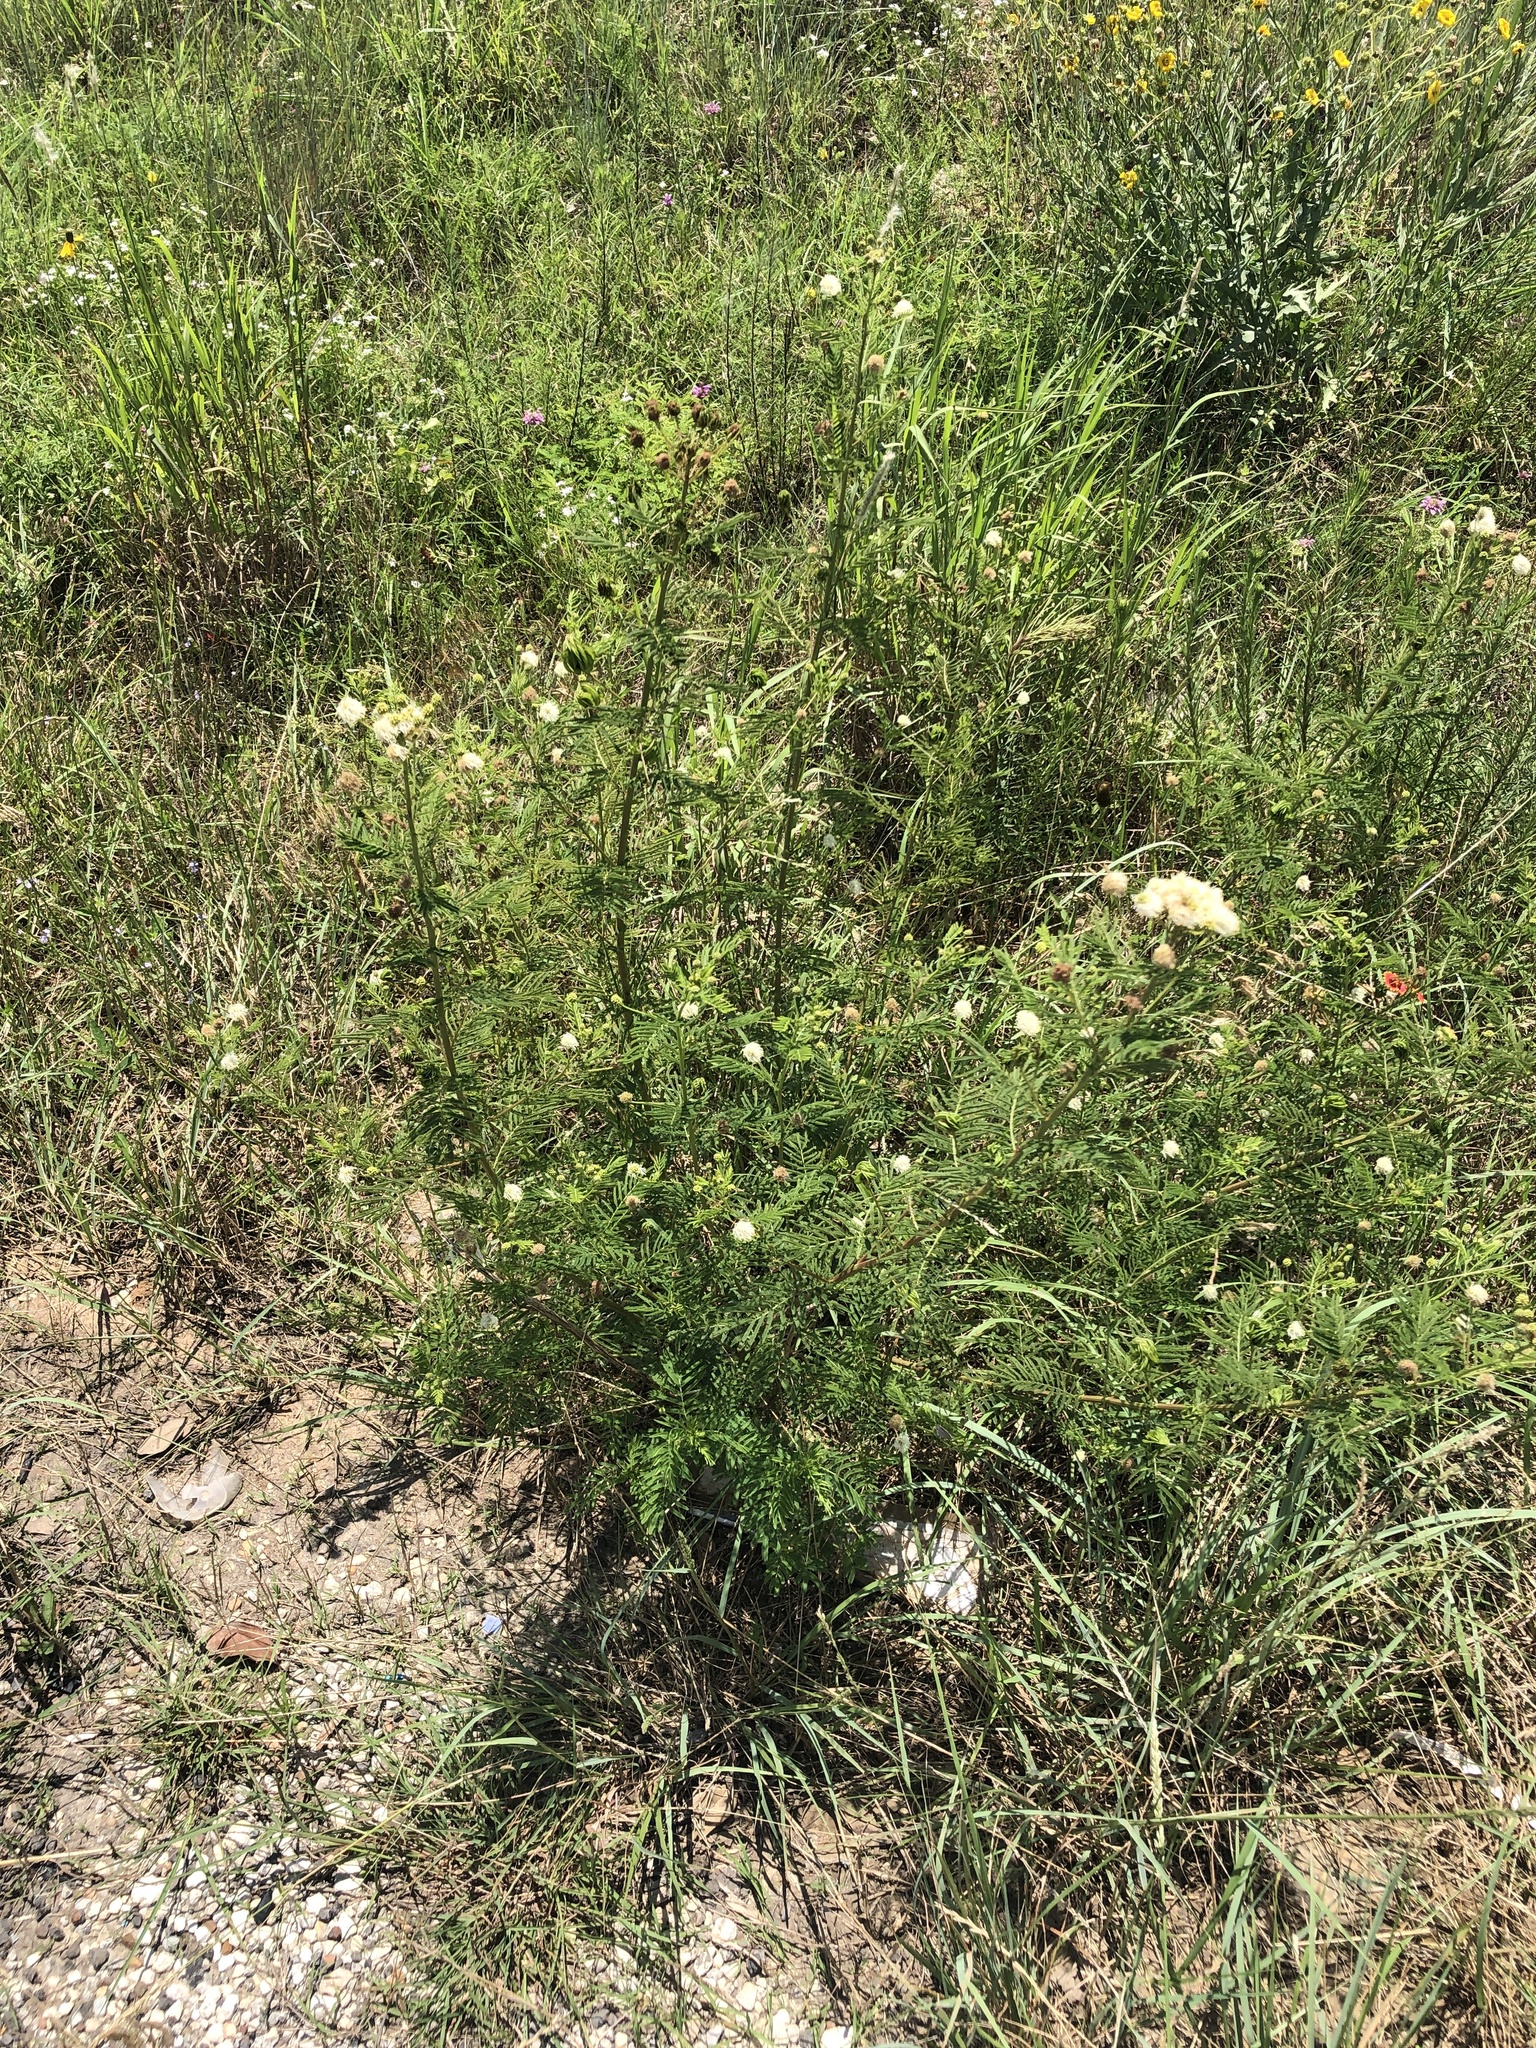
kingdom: Plantae
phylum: Tracheophyta
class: Magnoliopsida
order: Fabales
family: Fabaceae
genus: Desmanthus
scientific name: Desmanthus illinoensis
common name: Illinois bundle-flower
